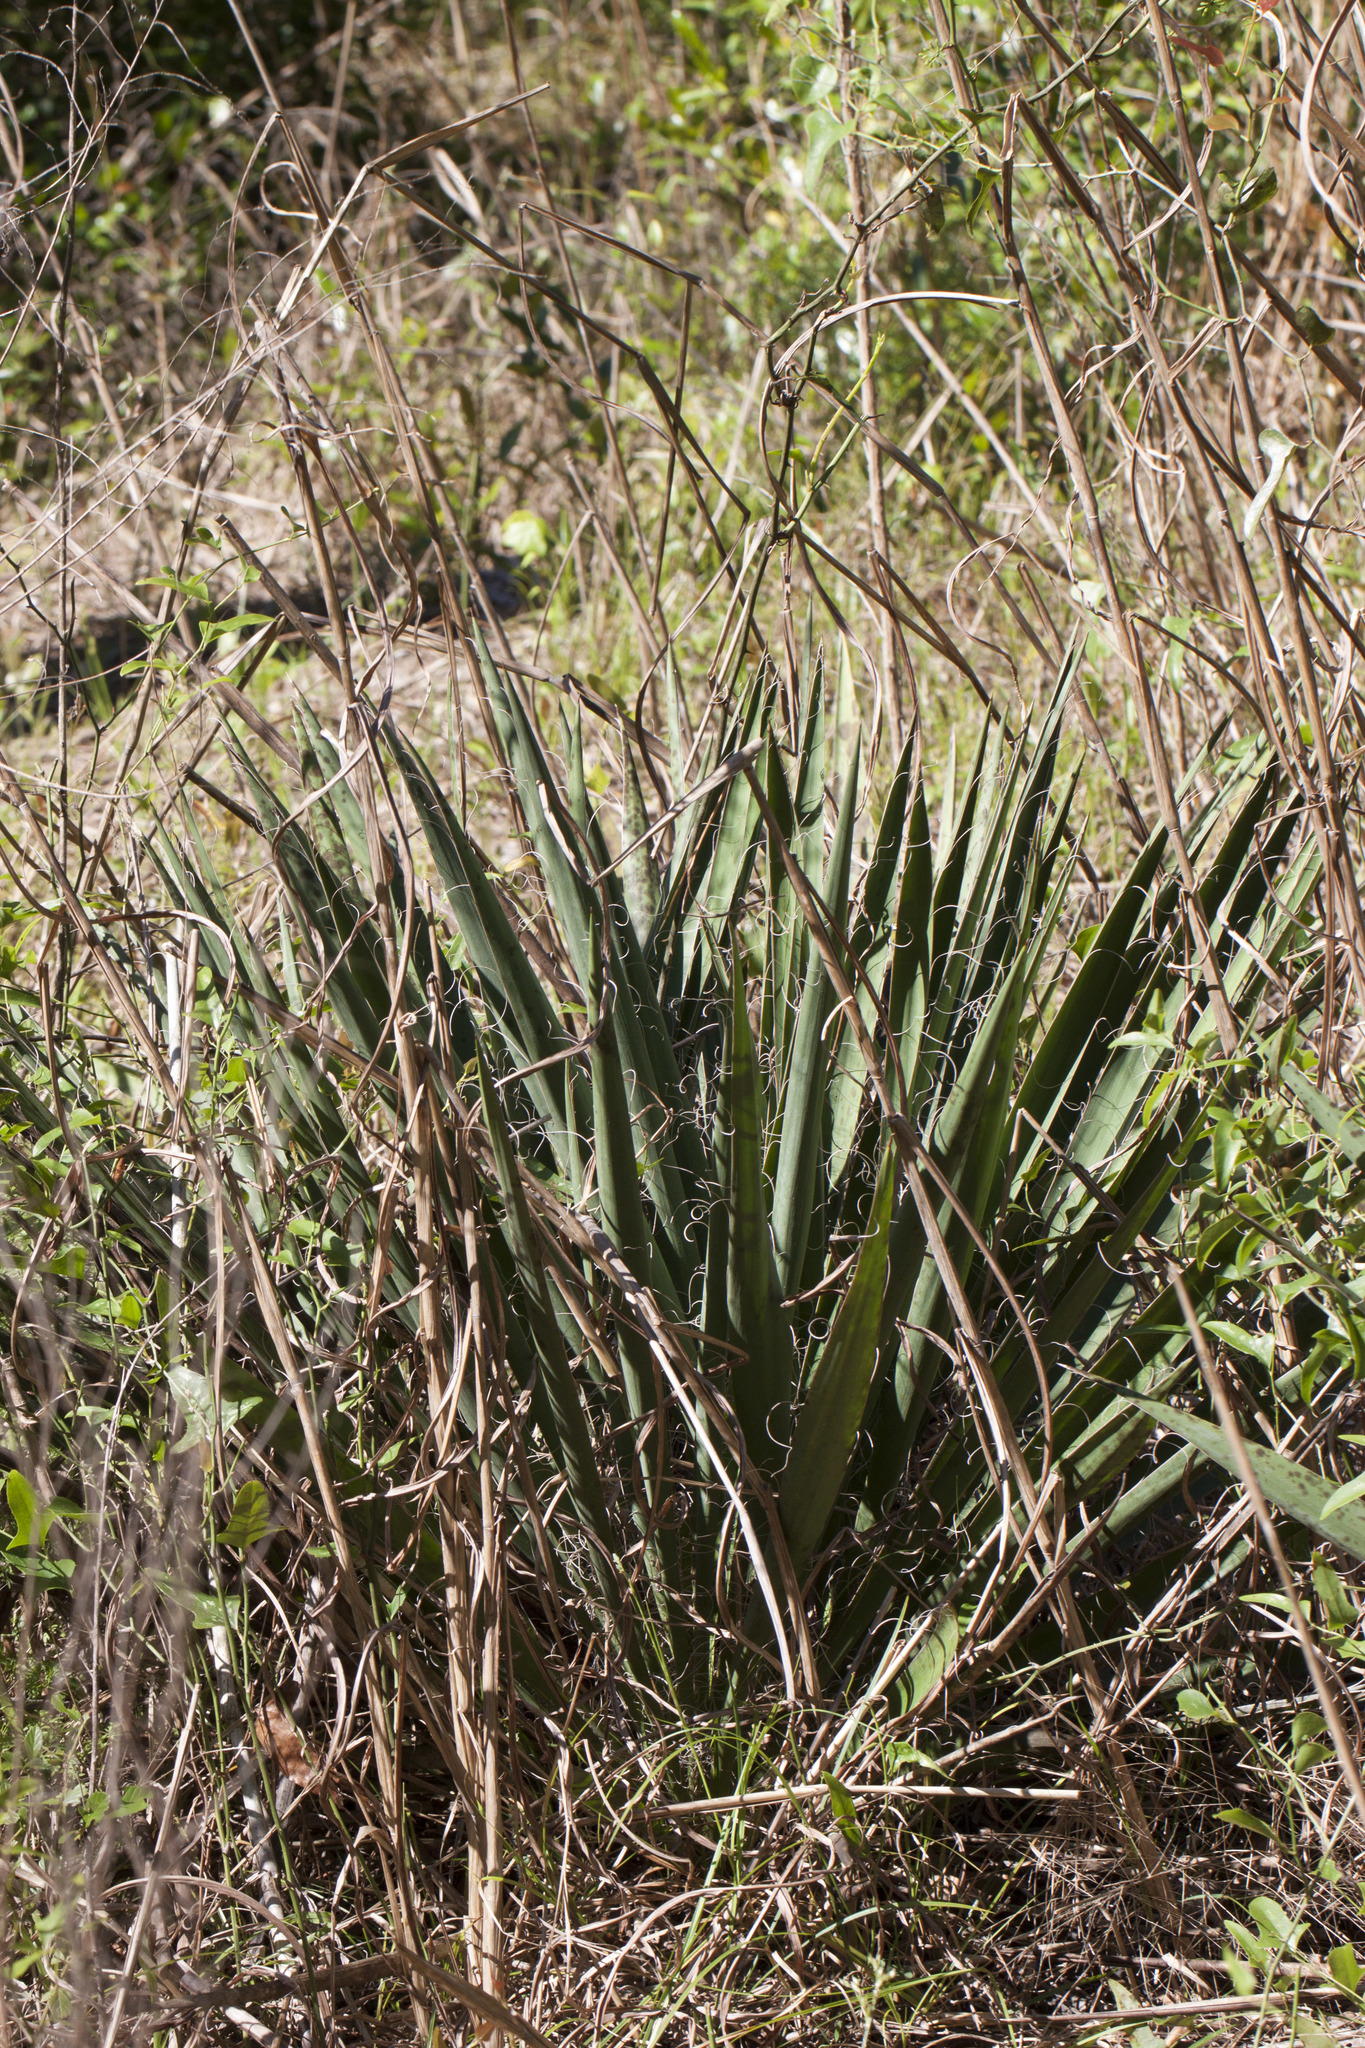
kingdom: Plantae
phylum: Tracheophyta
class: Liliopsida
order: Asparagales
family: Asparagaceae
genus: Yucca
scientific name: Yucca filamentosa
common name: Adam's-needle
